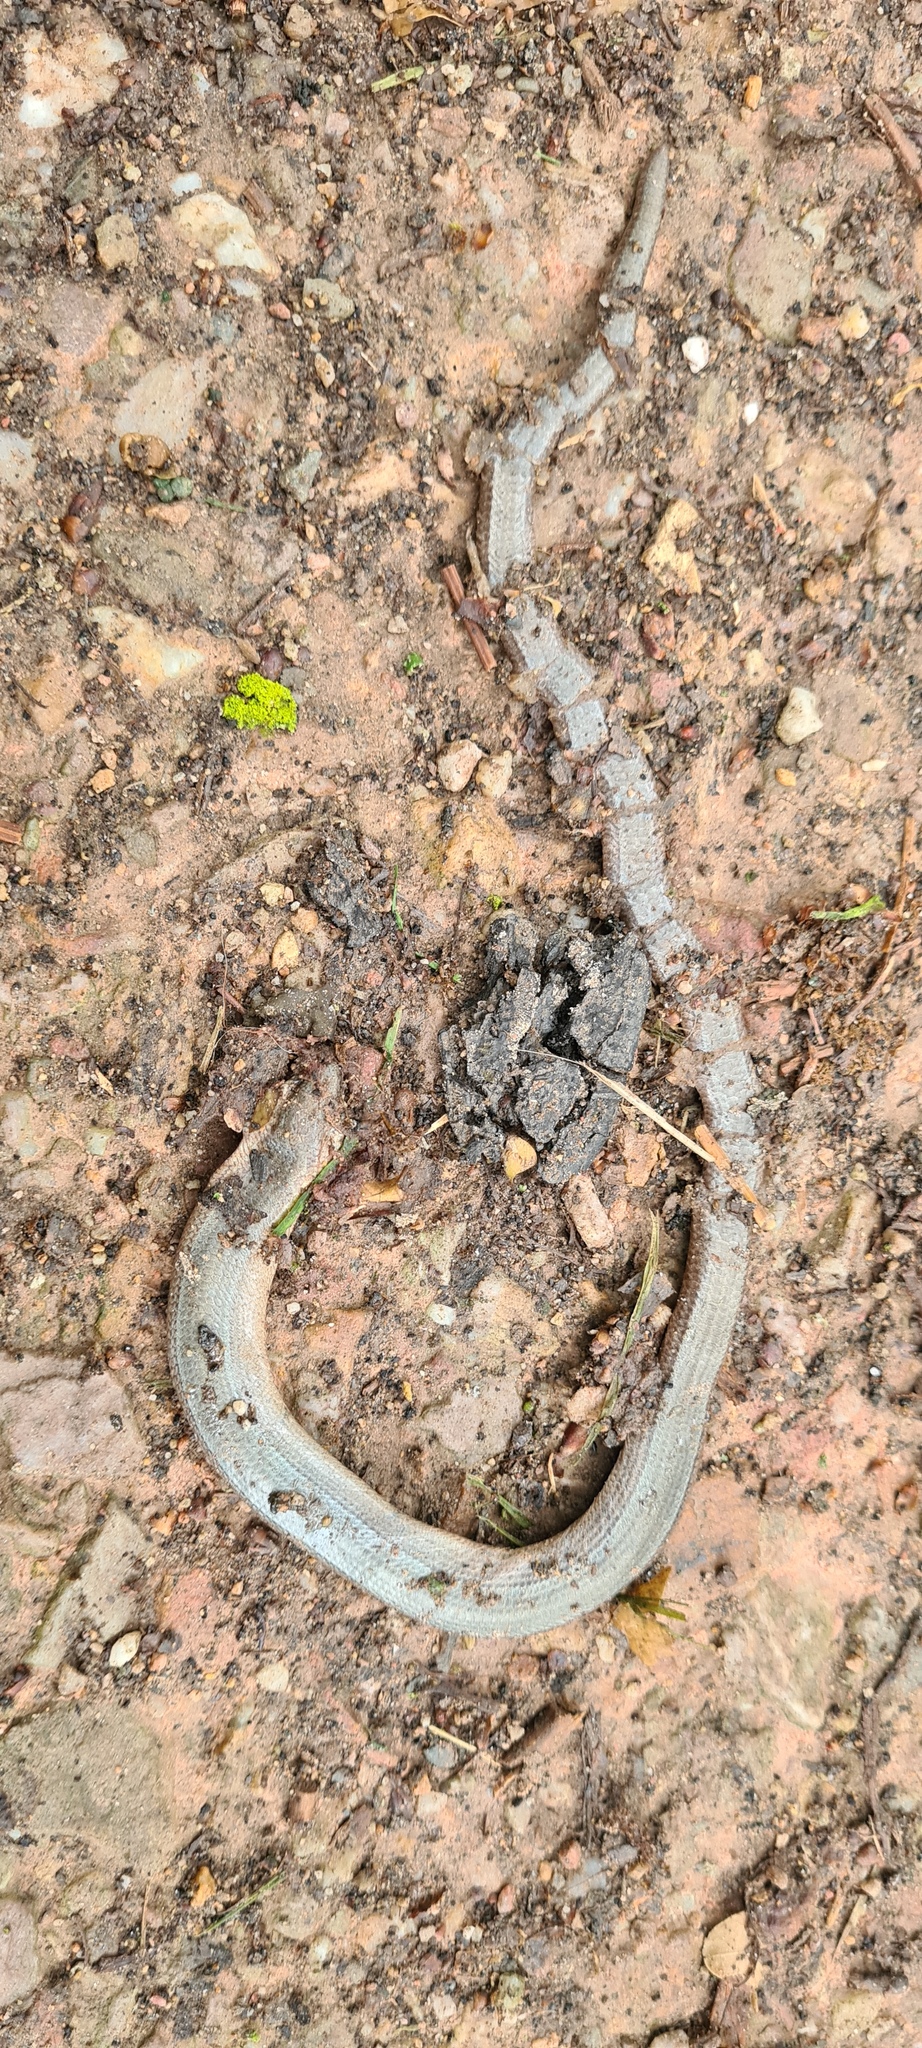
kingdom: Animalia
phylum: Chordata
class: Squamata
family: Anguidae
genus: Anguis
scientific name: Anguis fragilis
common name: Slow worm
